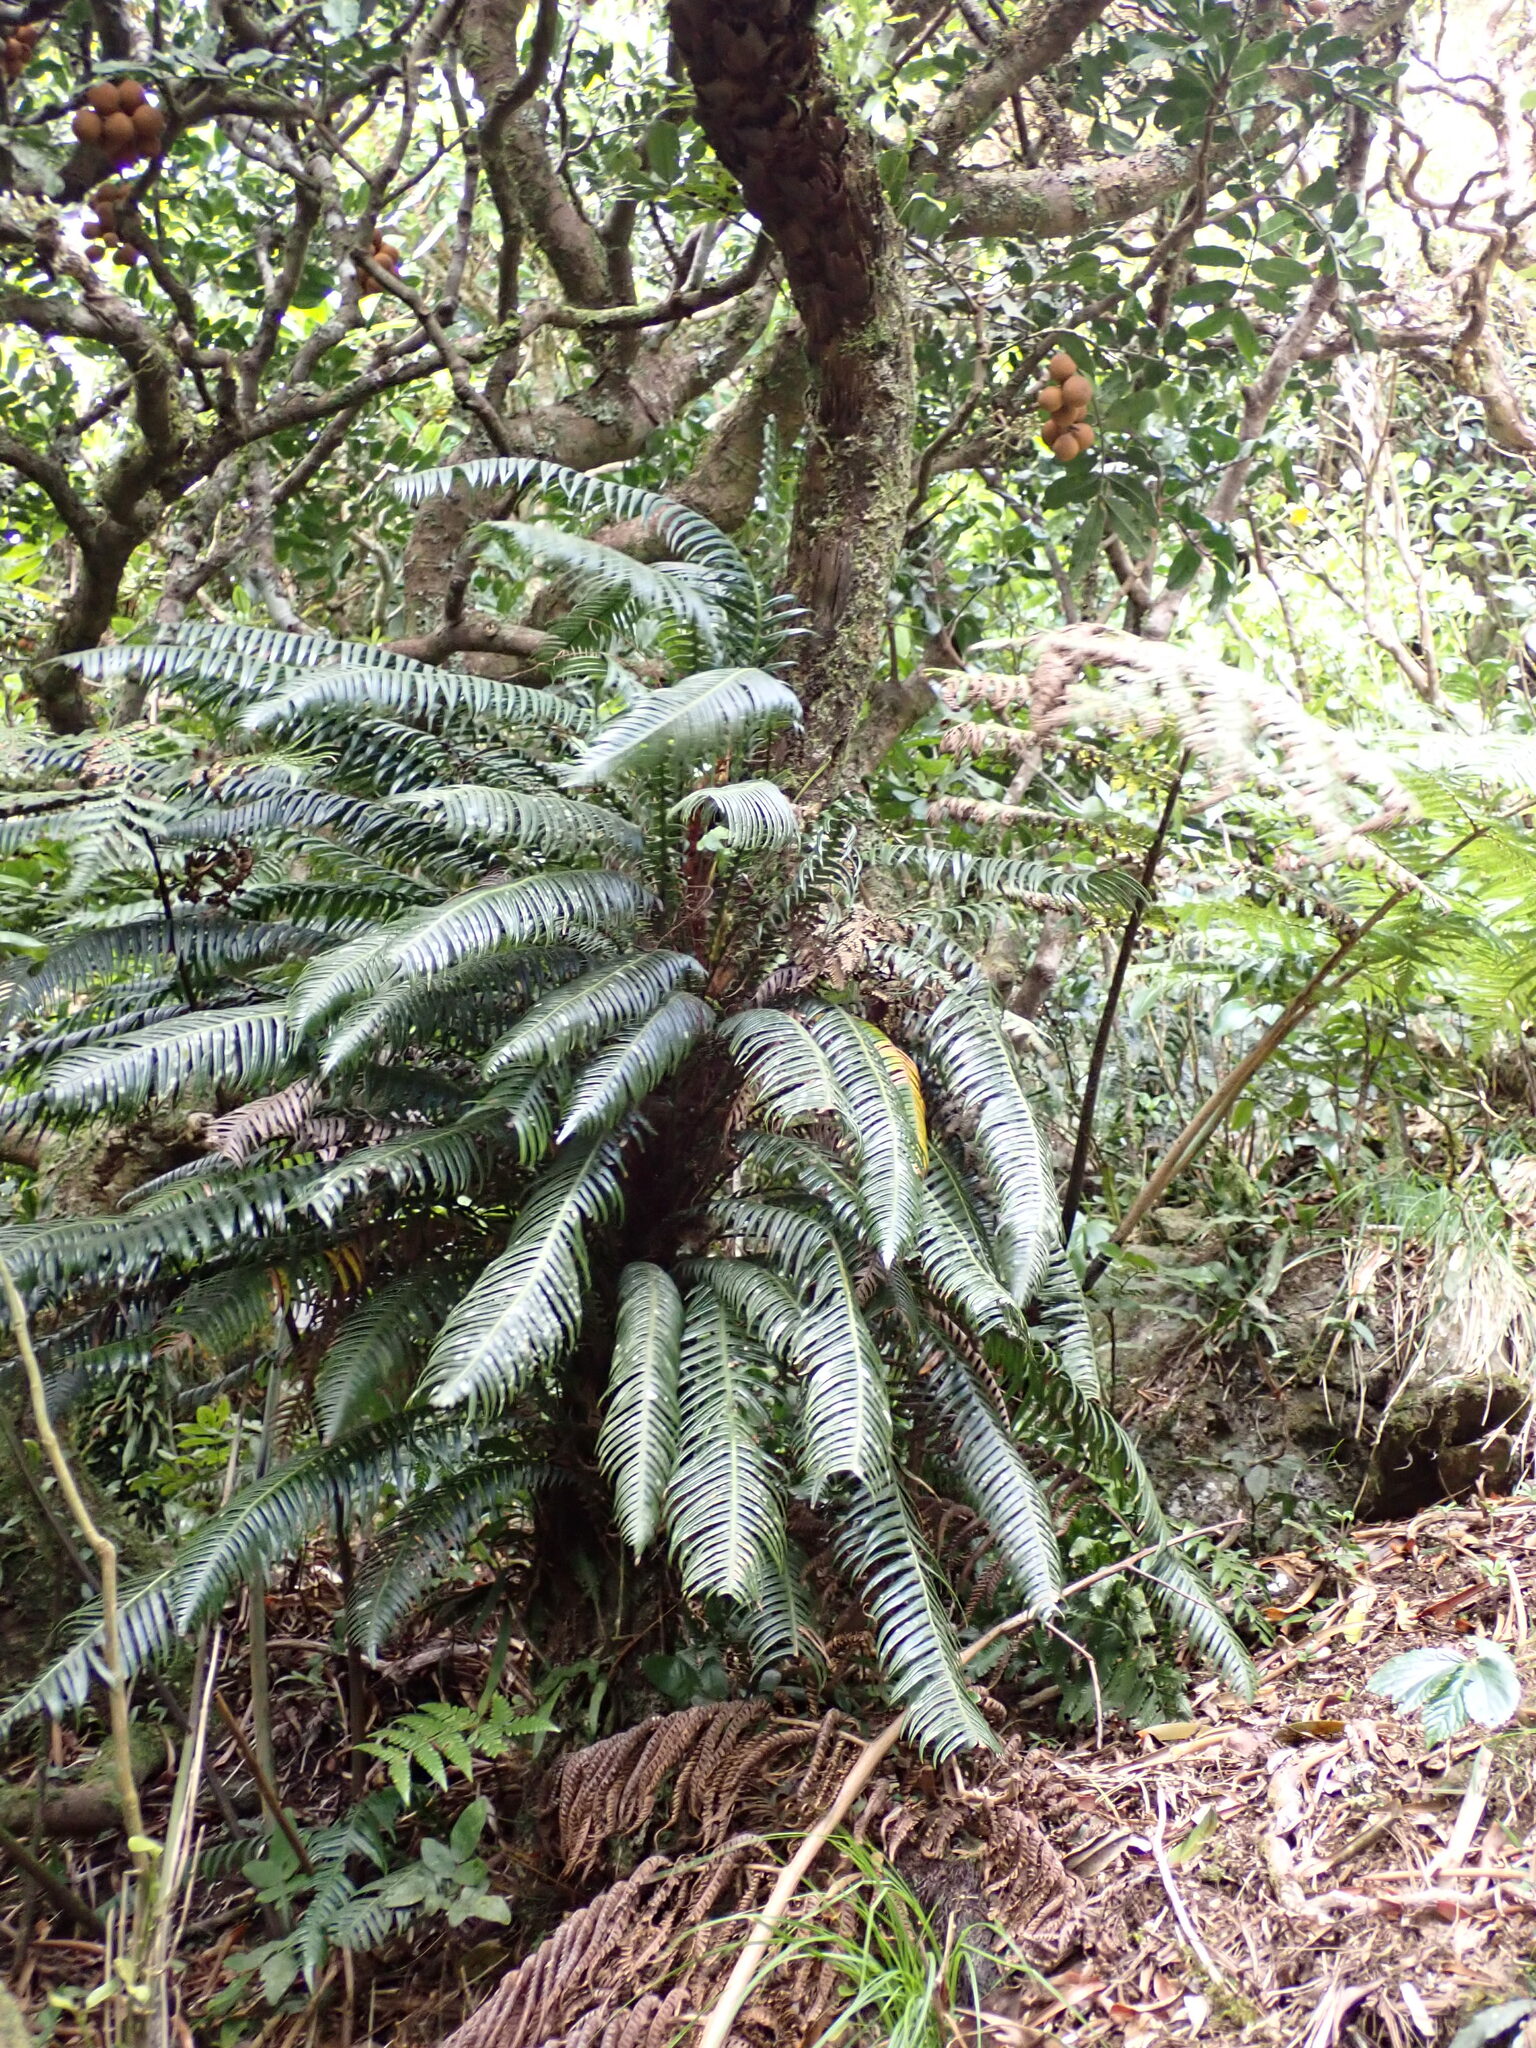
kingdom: Plantae
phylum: Tracheophyta
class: Polypodiopsida
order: Polypodiales
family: Blechnaceae
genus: Lomaridium
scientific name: Lomaridium contiguum
